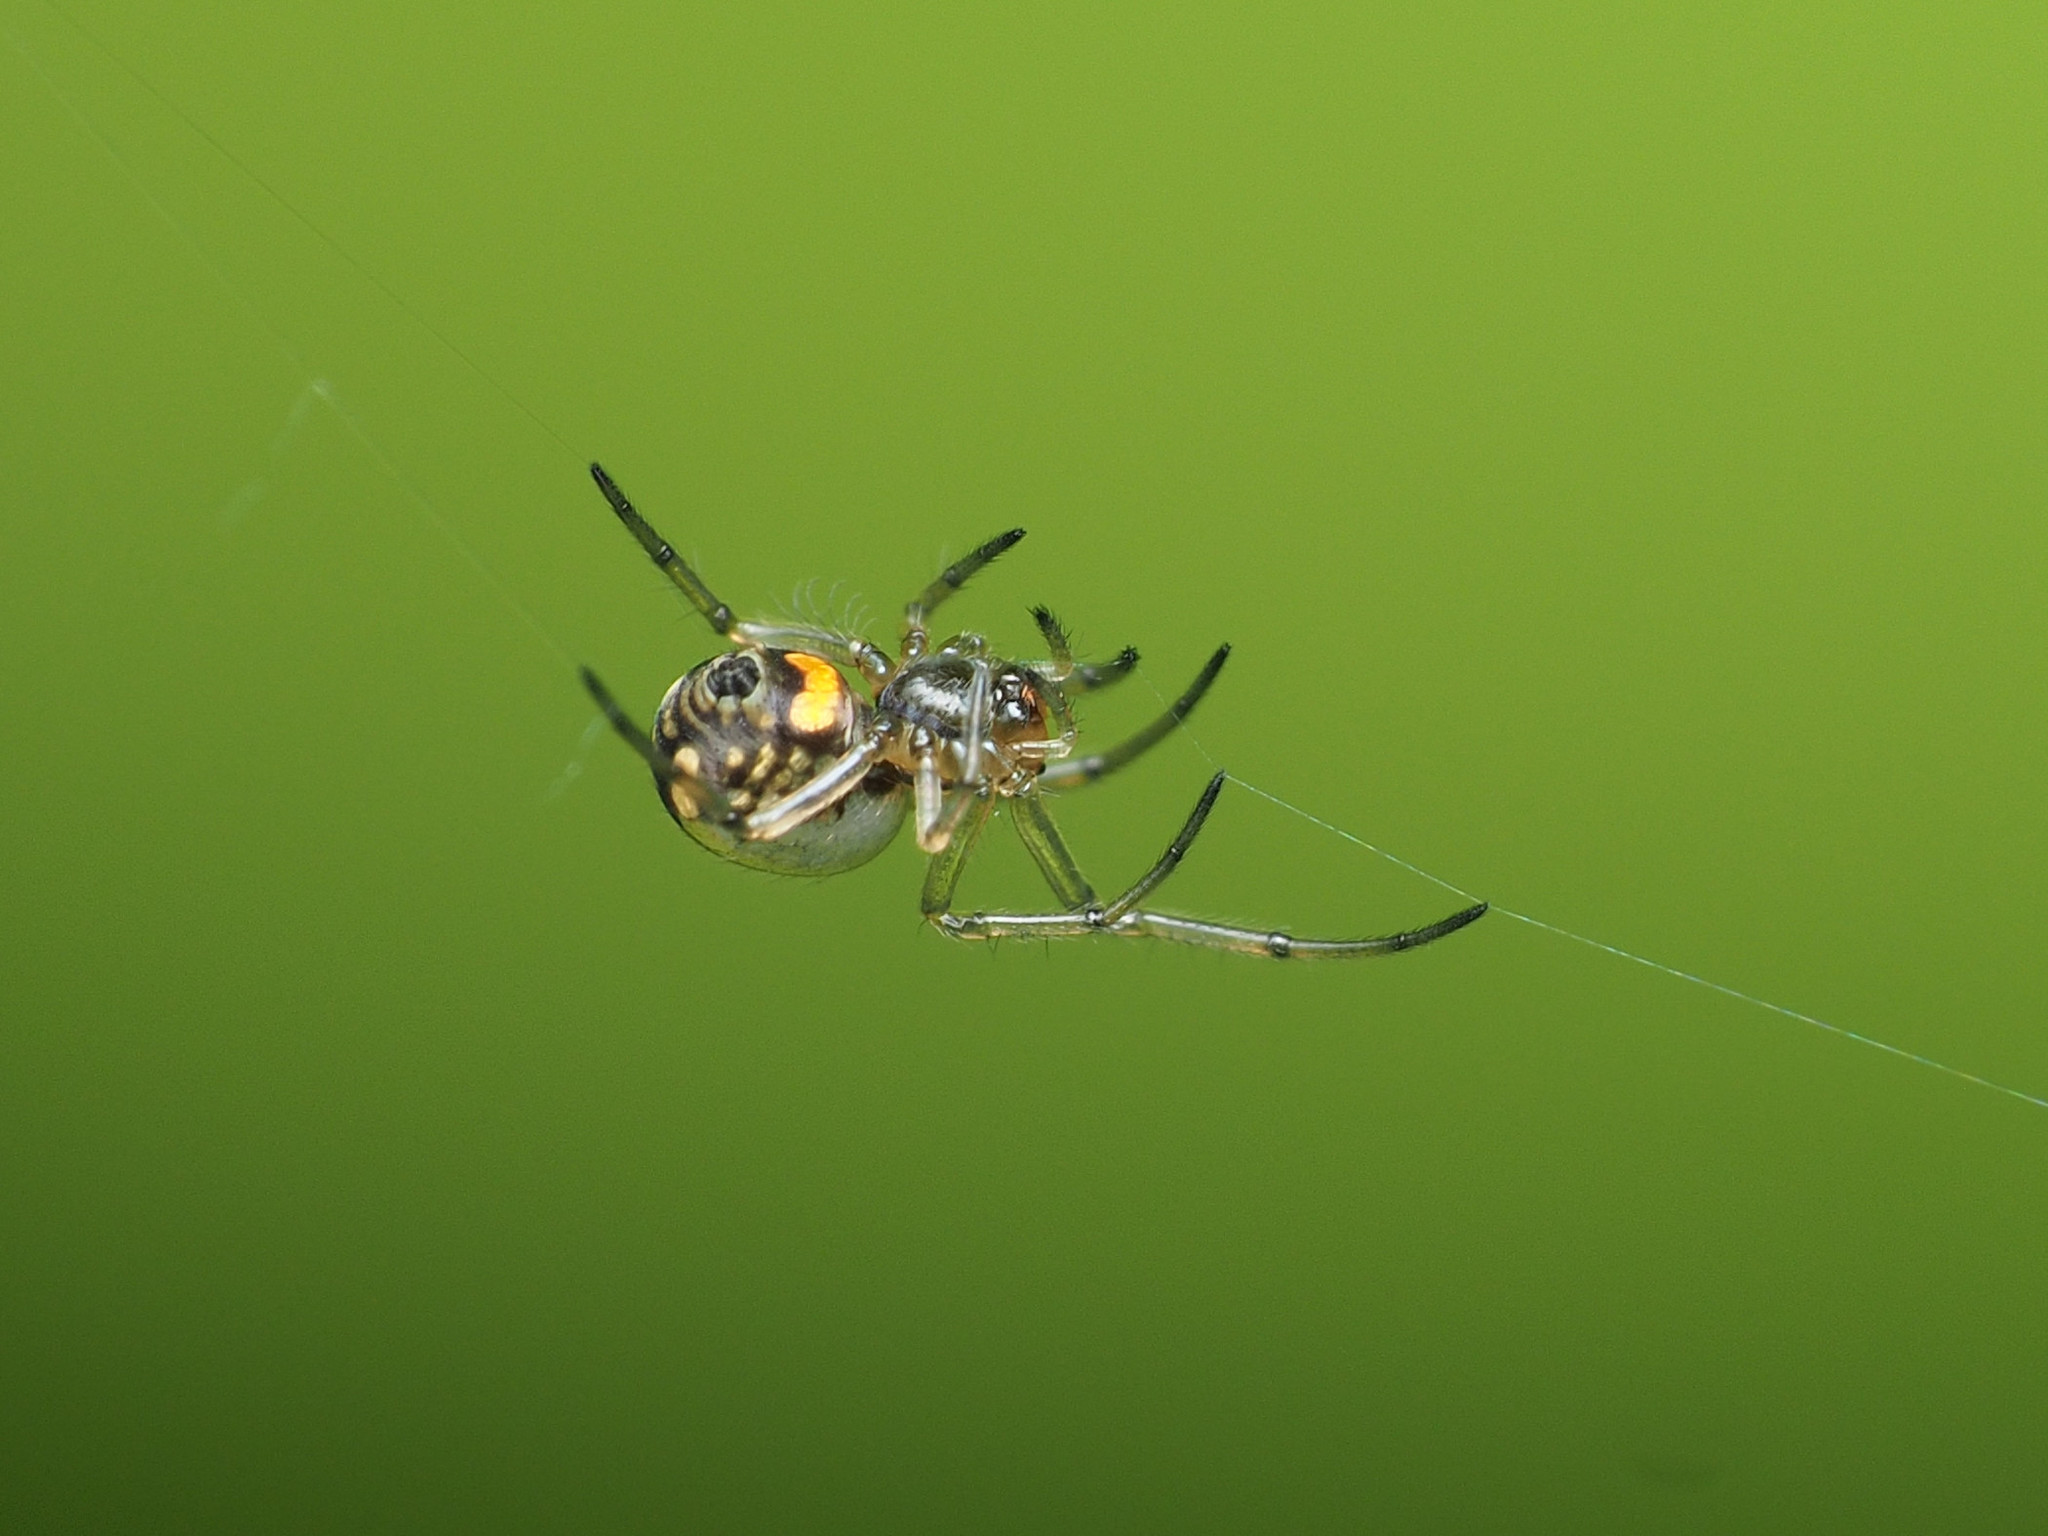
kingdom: Animalia
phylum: Arthropoda
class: Arachnida
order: Araneae
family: Tetragnathidae
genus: Leucauge
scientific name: Leucauge venusta
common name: Longjawed orb weavers
